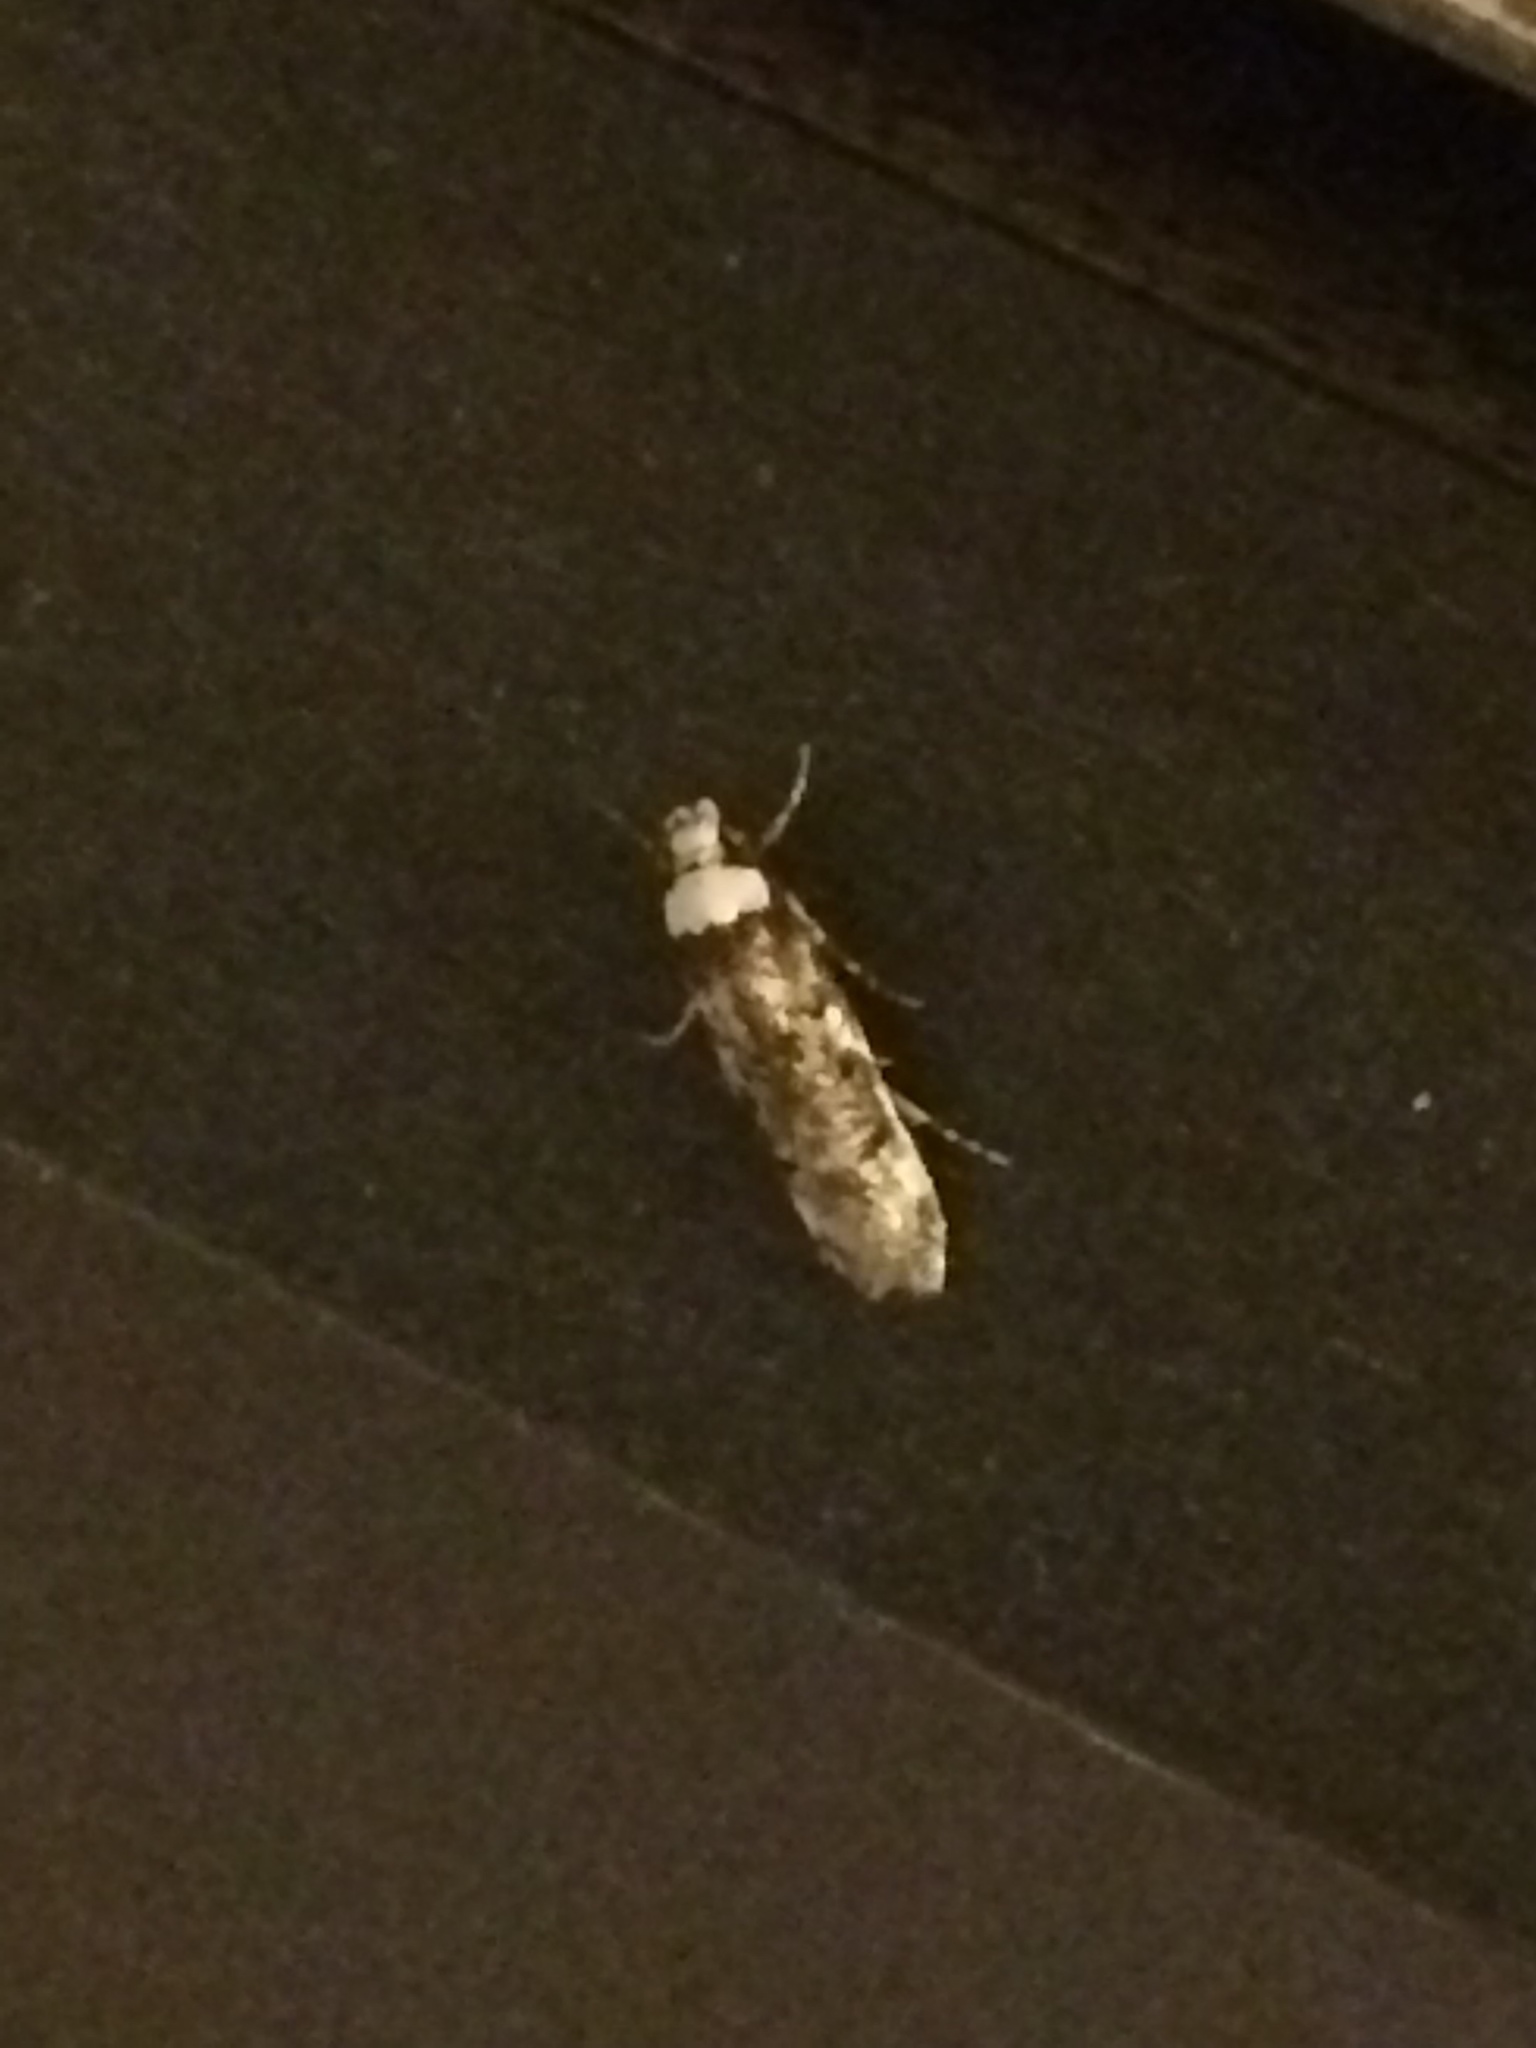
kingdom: Animalia
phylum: Arthropoda
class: Insecta
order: Lepidoptera
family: Oecophoridae
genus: Endrosis
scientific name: Endrosis sarcitrella
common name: White-shouldered house moth
